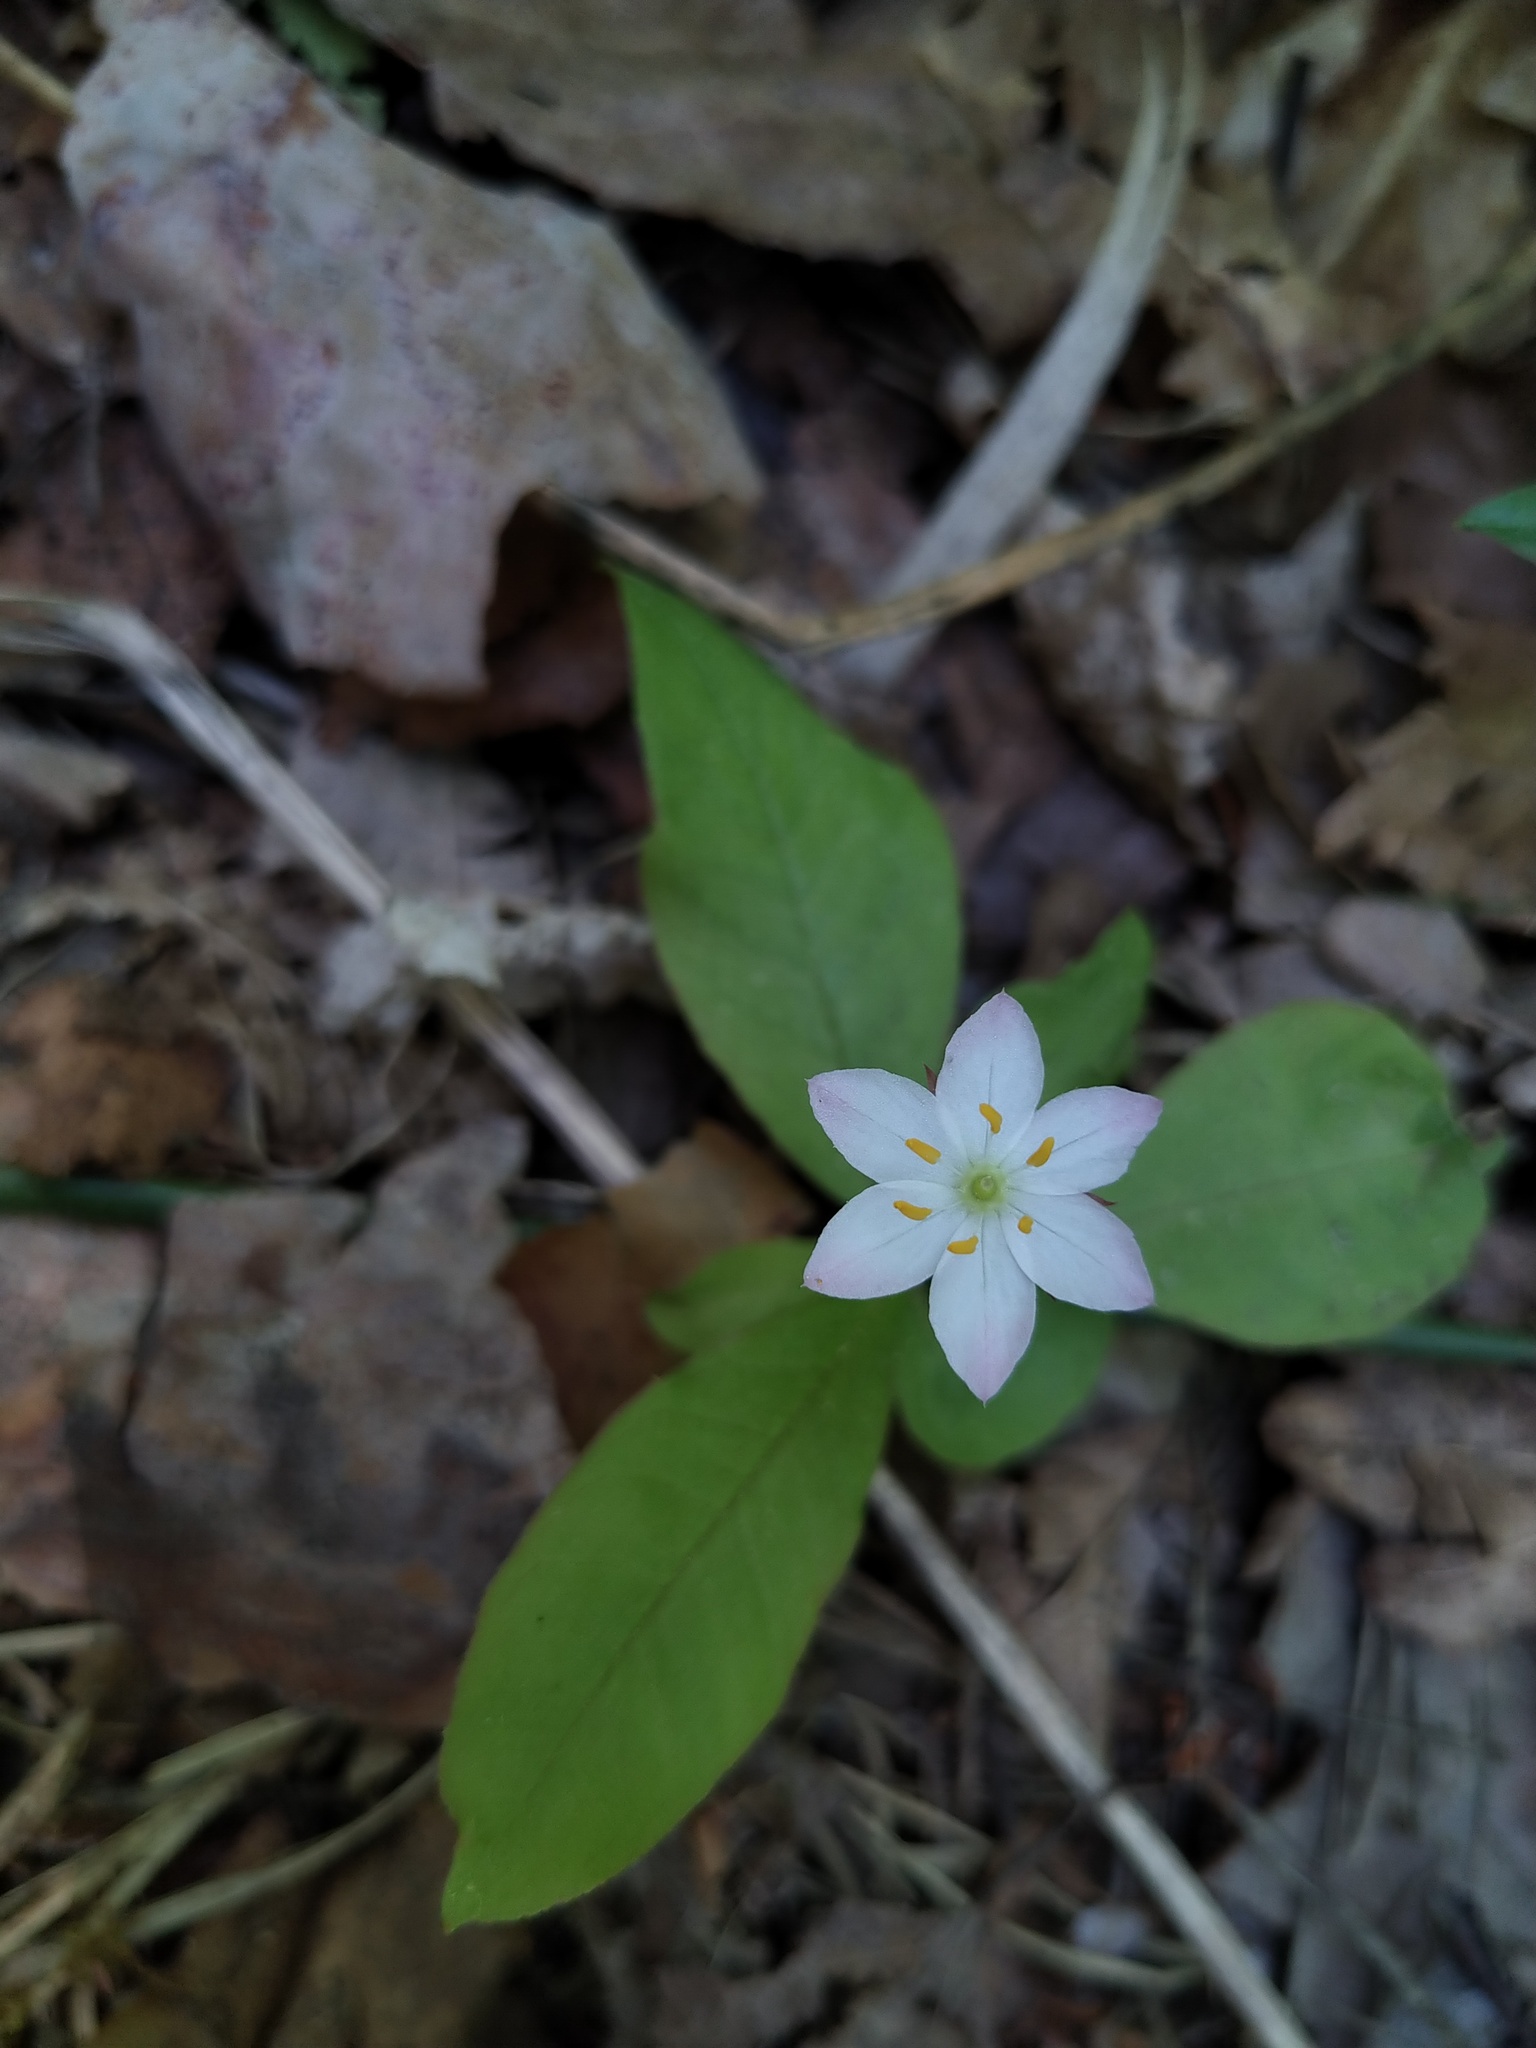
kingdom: Plantae
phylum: Tracheophyta
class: Magnoliopsida
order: Ericales
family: Primulaceae
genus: Lysimachia
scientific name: Lysimachia europaea
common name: Arctic starflower
